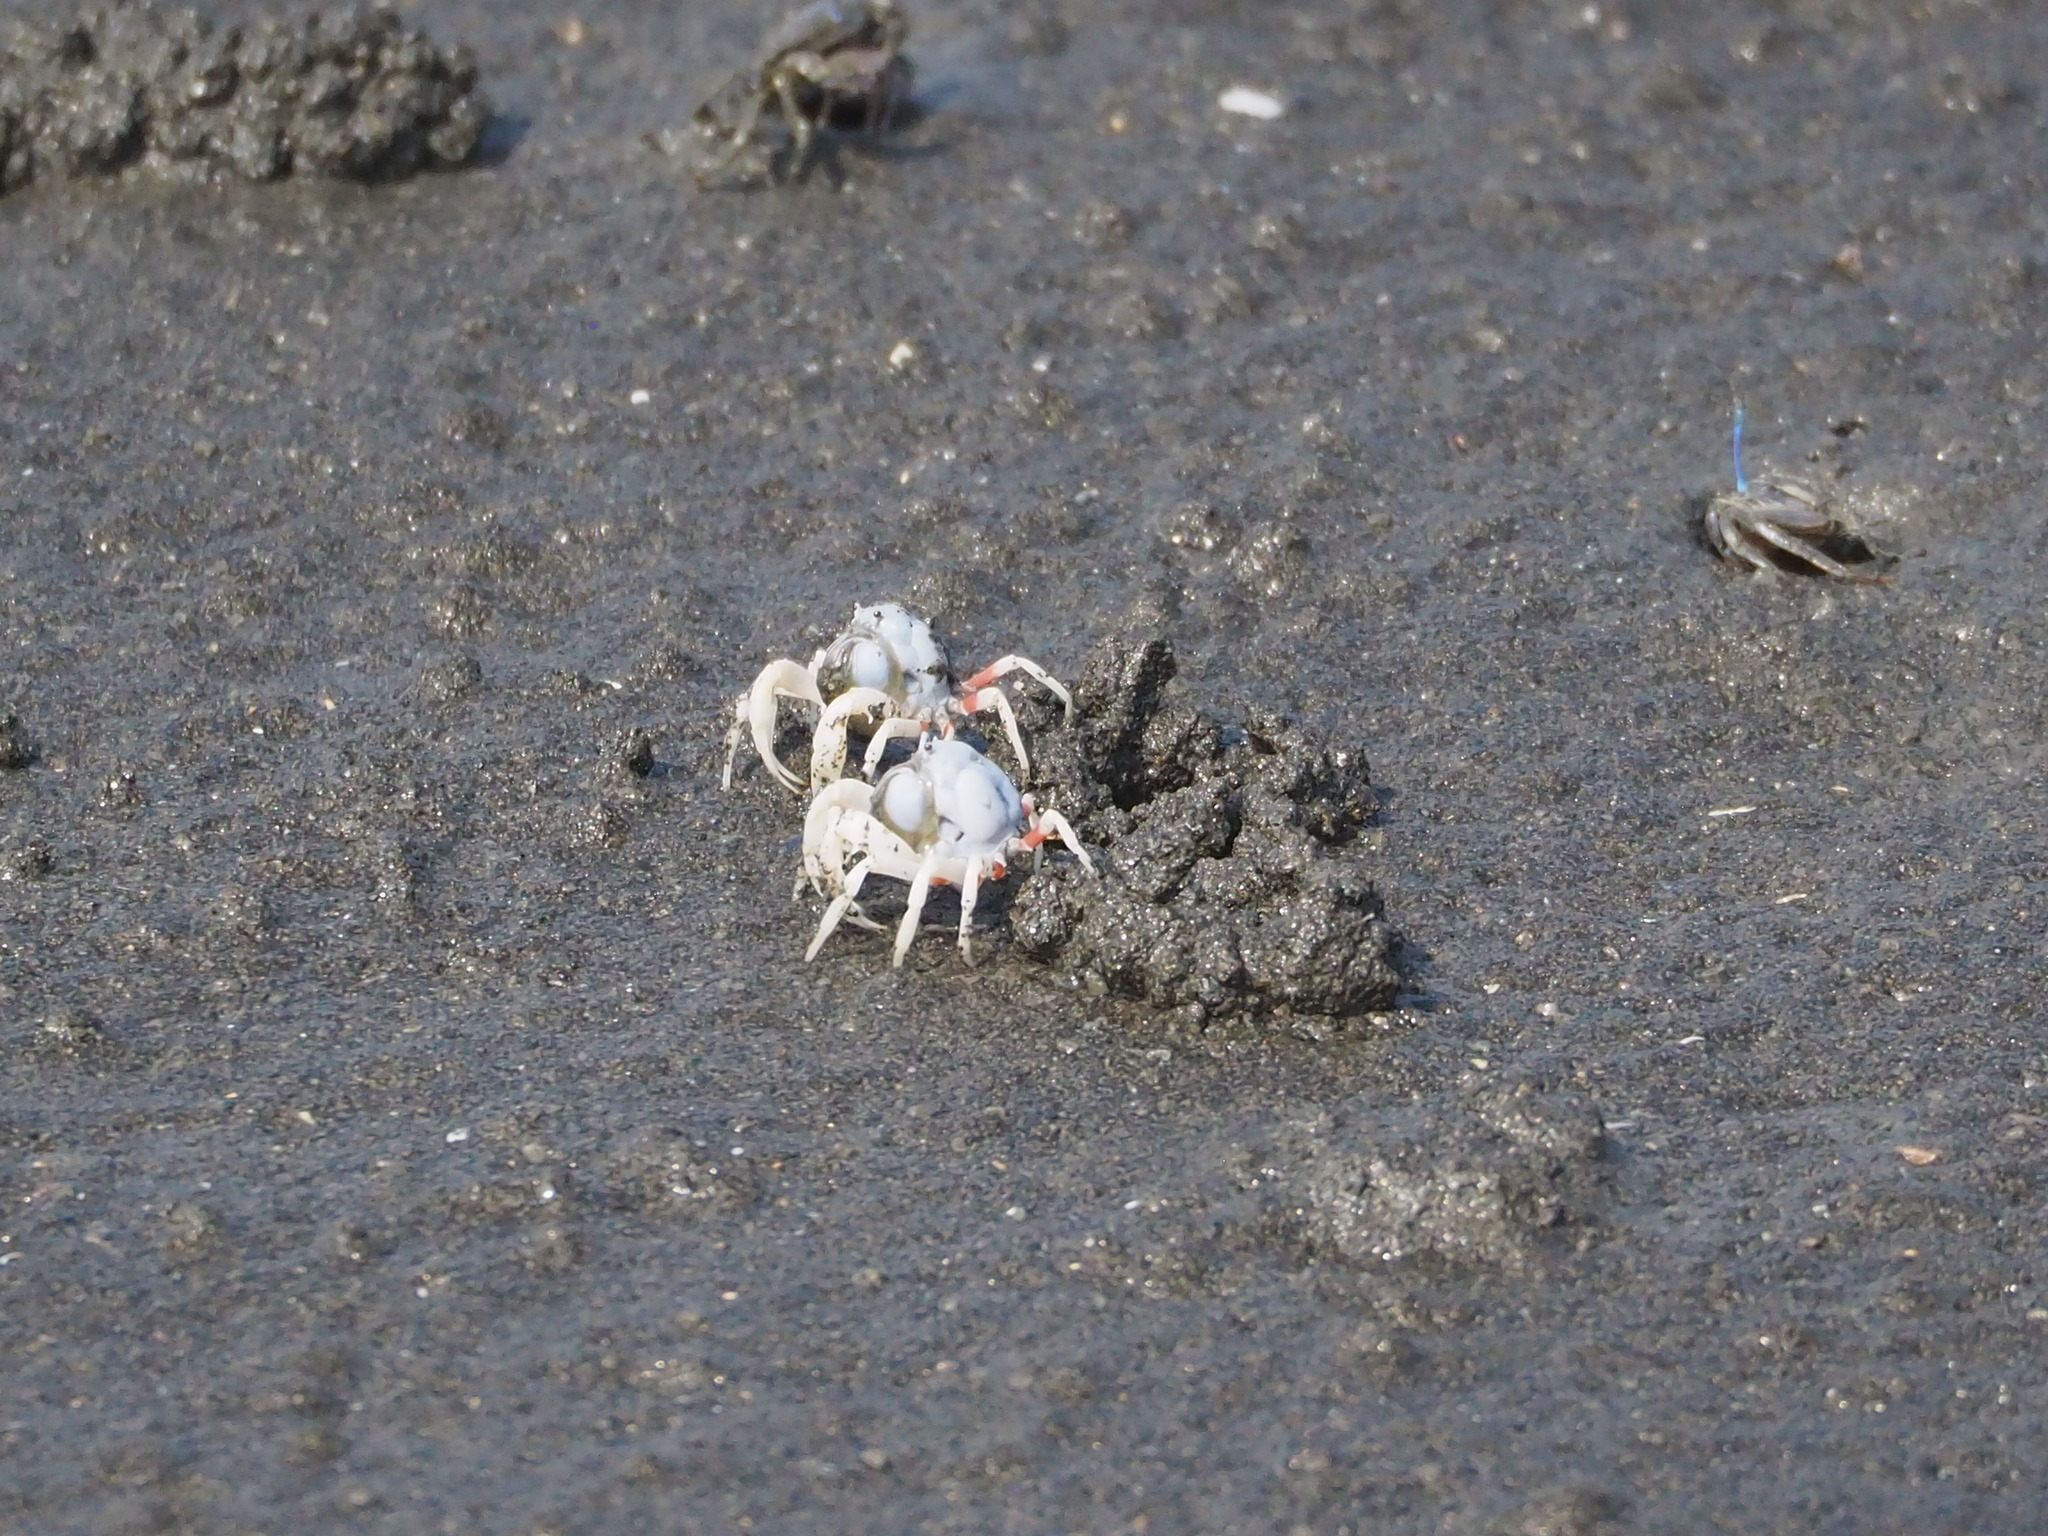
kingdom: Animalia
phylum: Arthropoda
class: Malacostraca
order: Decapoda
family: Mictyridae
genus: Mictyris
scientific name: Mictyris brevidactylus
